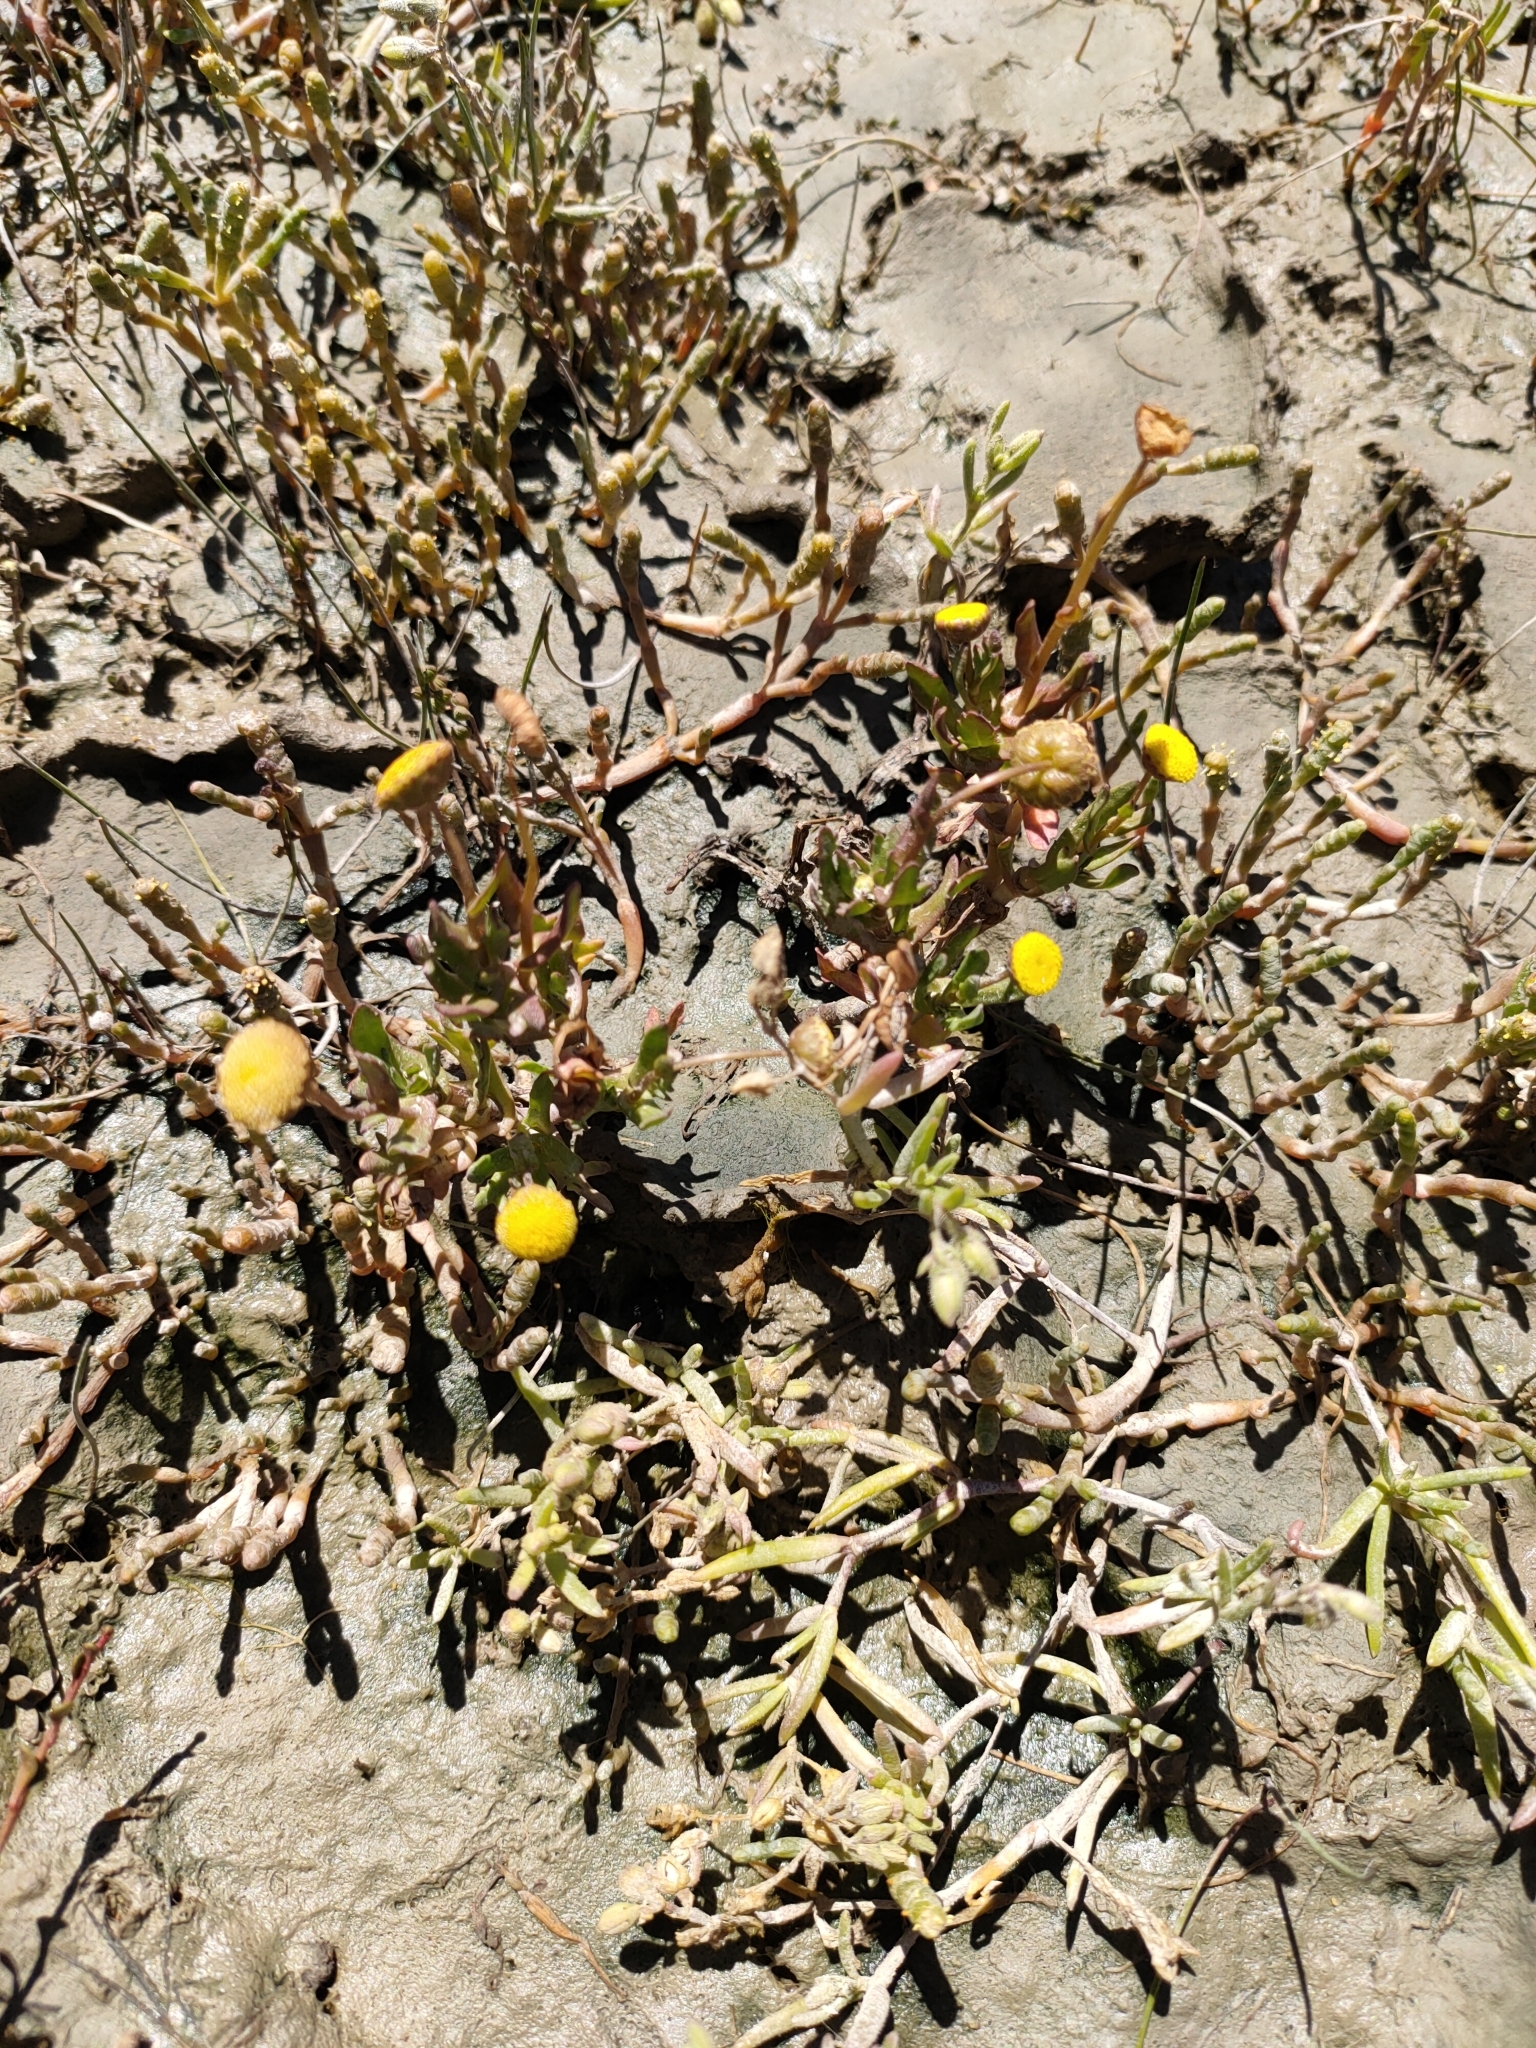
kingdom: Plantae
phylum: Tracheophyta
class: Magnoliopsida
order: Asterales
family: Asteraceae
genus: Cotula
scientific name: Cotula coronopifolia
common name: Buttonweed
